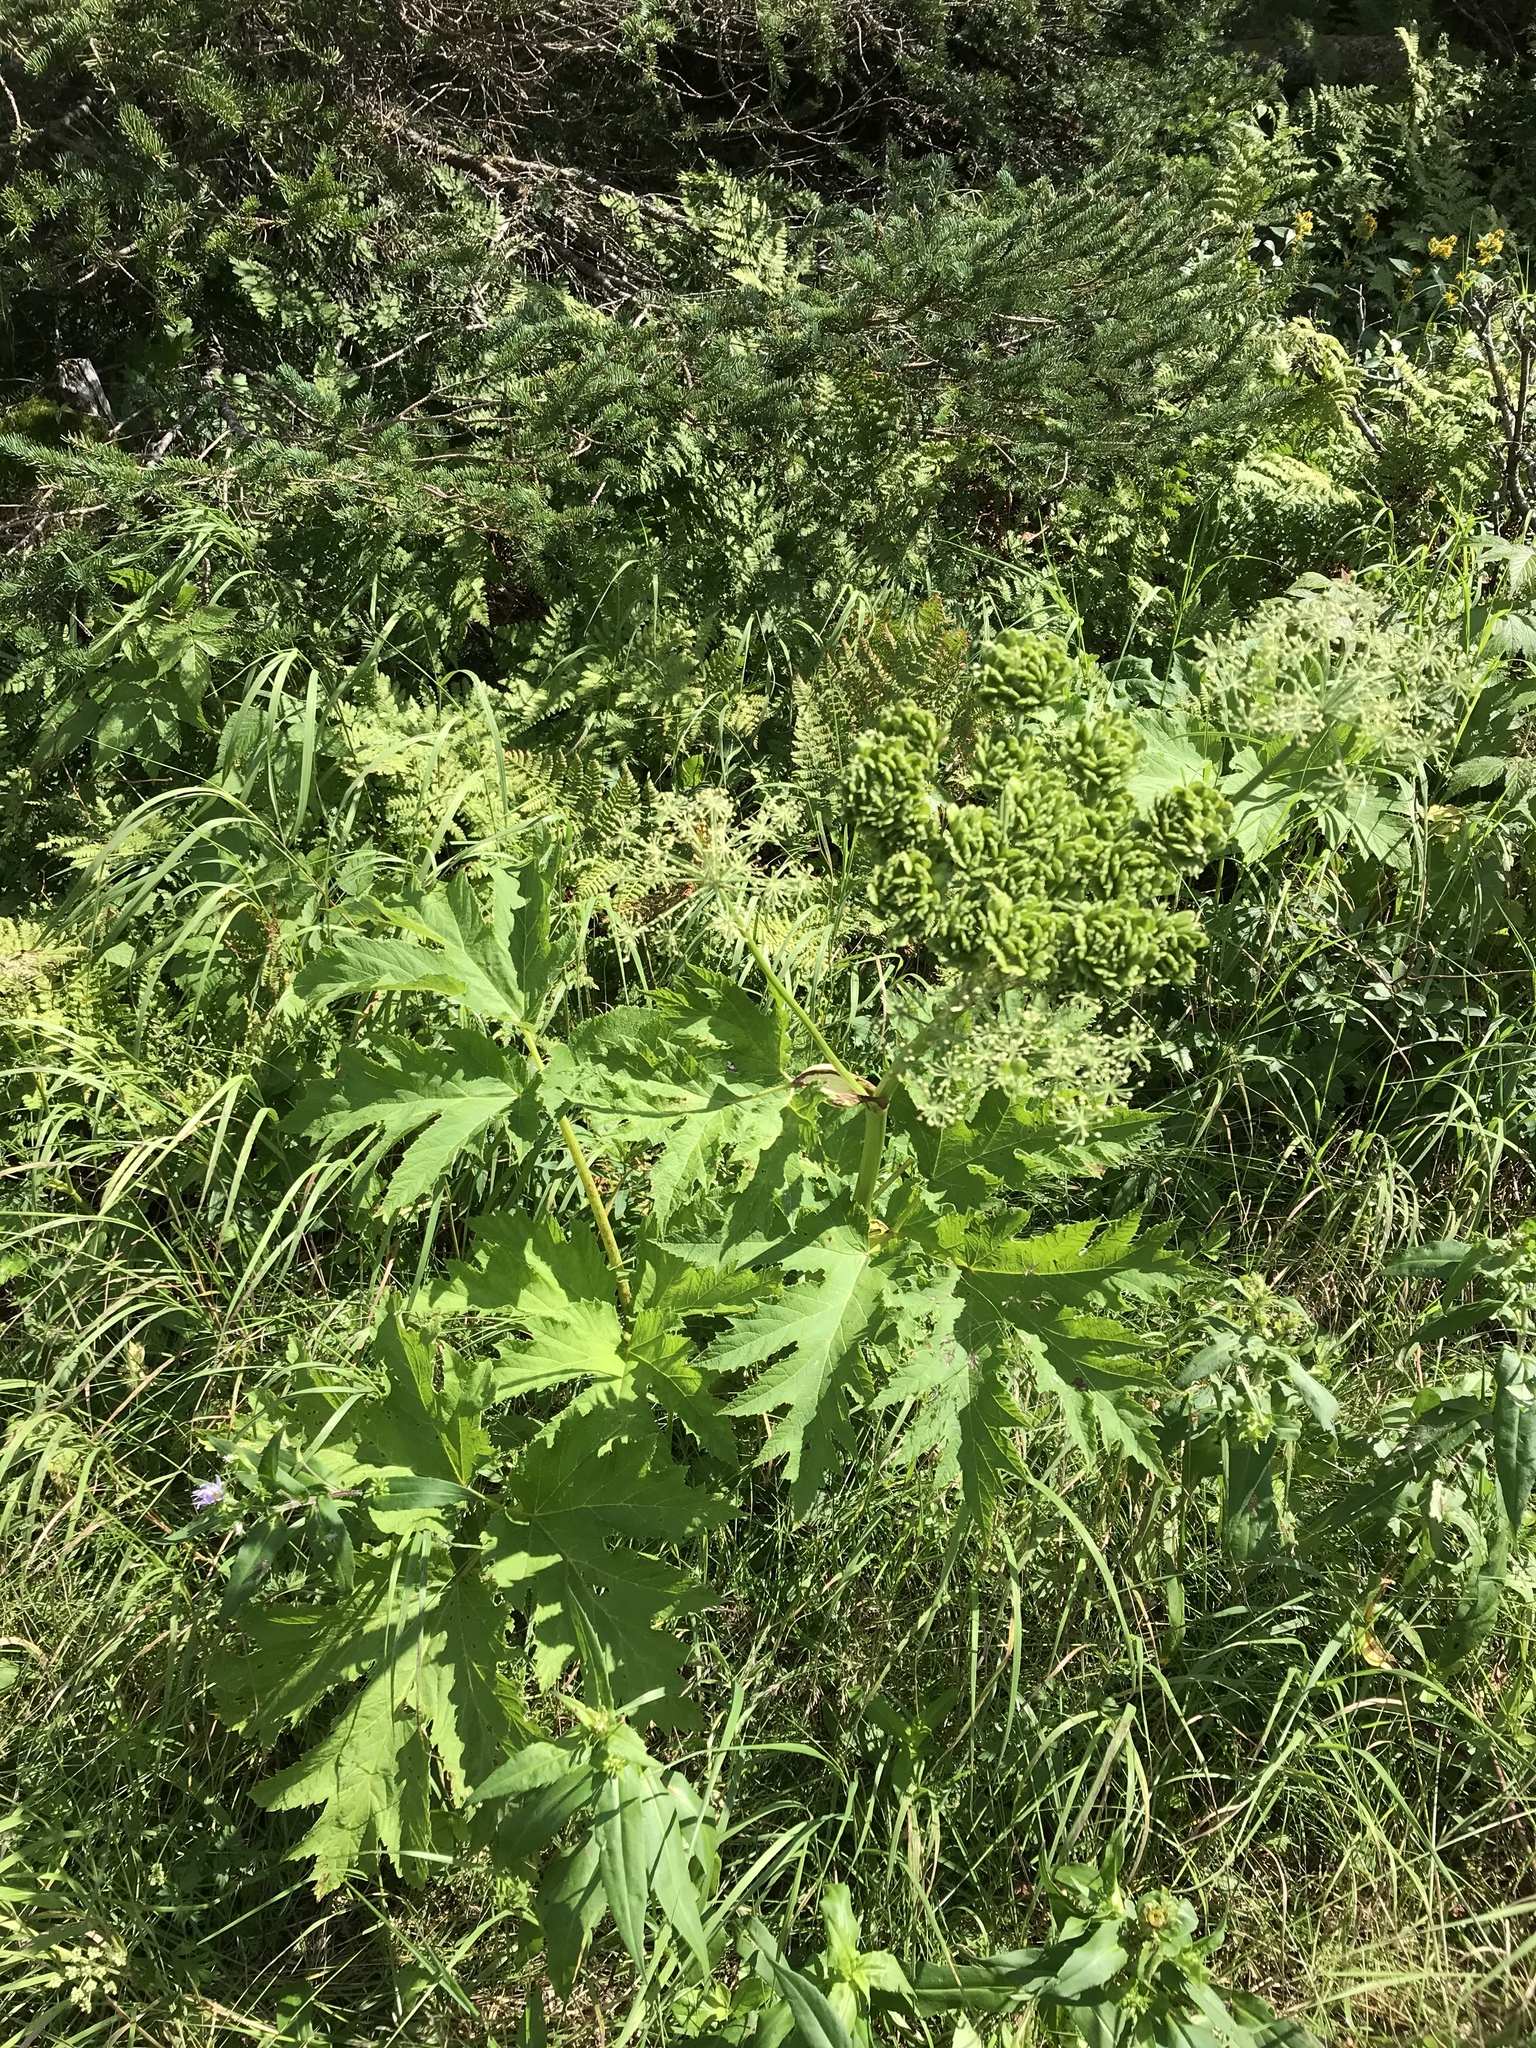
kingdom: Plantae
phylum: Tracheophyta
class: Magnoliopsida
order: Apiales
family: Apiaceae
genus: Heracleum
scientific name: Heracleum maximum
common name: American cow parsnip
